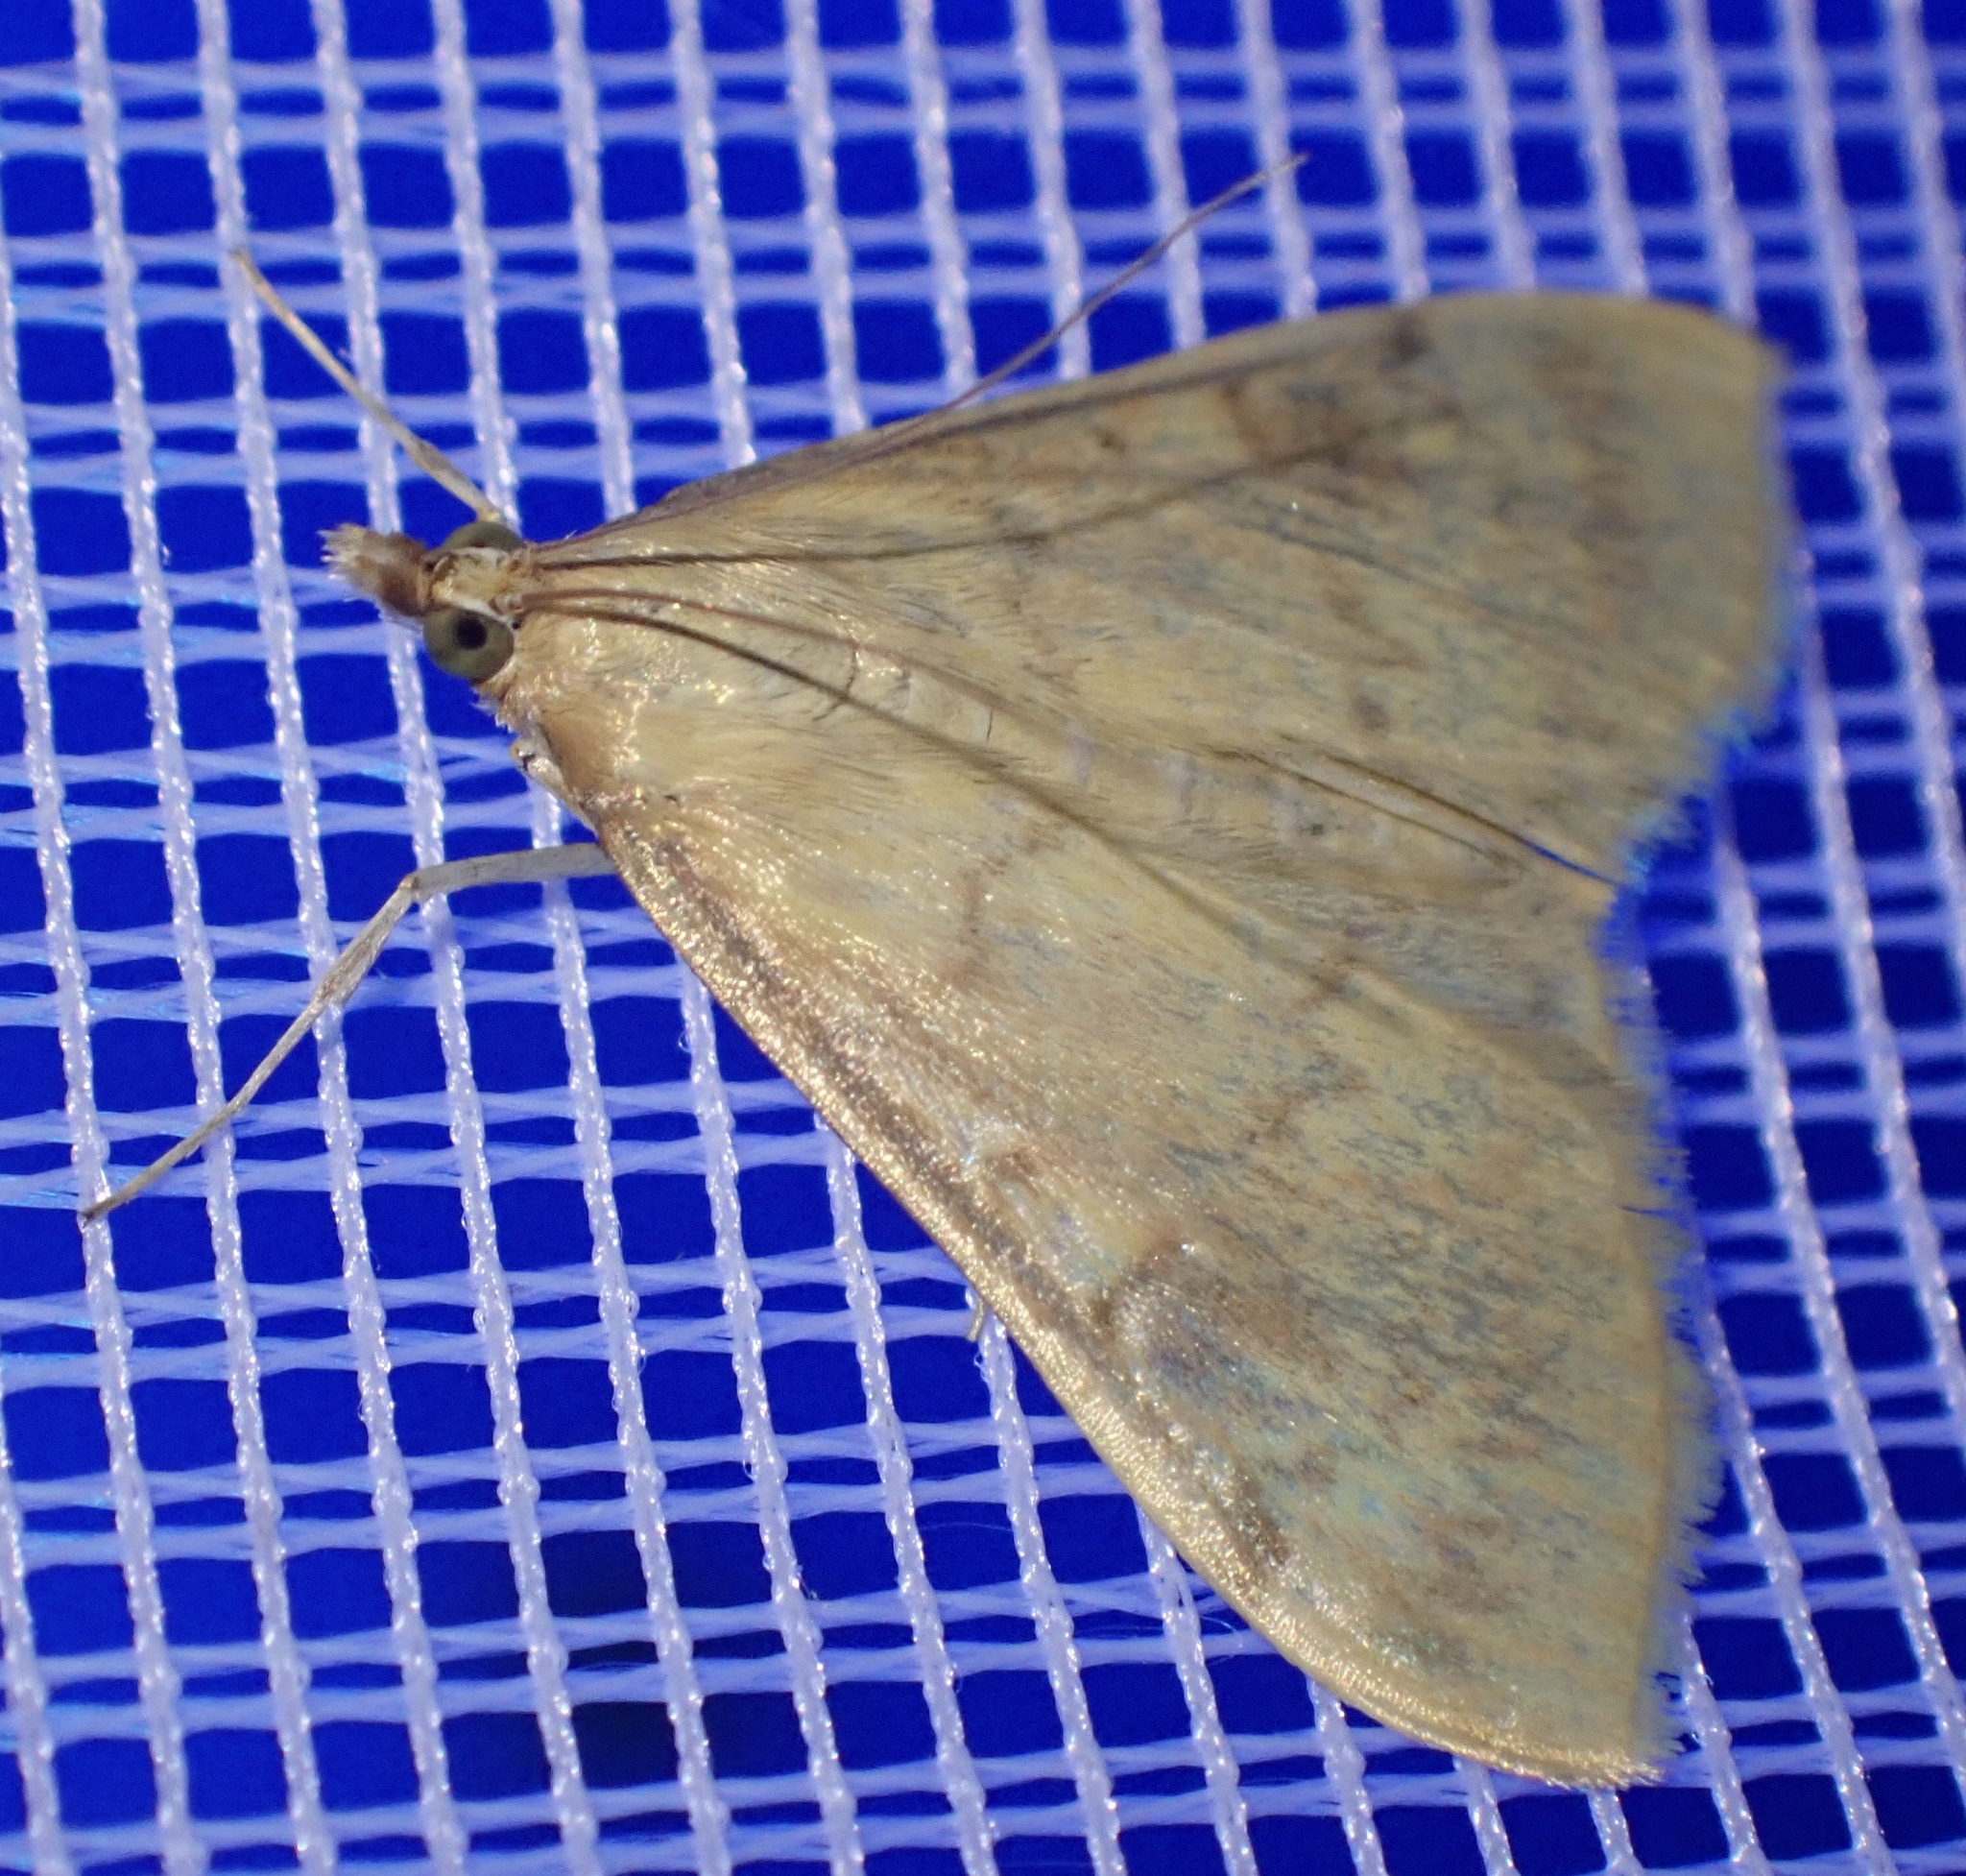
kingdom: Animalia
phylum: Arthropoda
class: Insecta
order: Lepidoptera
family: Crambidae
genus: Ostrinia
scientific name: Ostrinia nubilalis
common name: European corn borer
